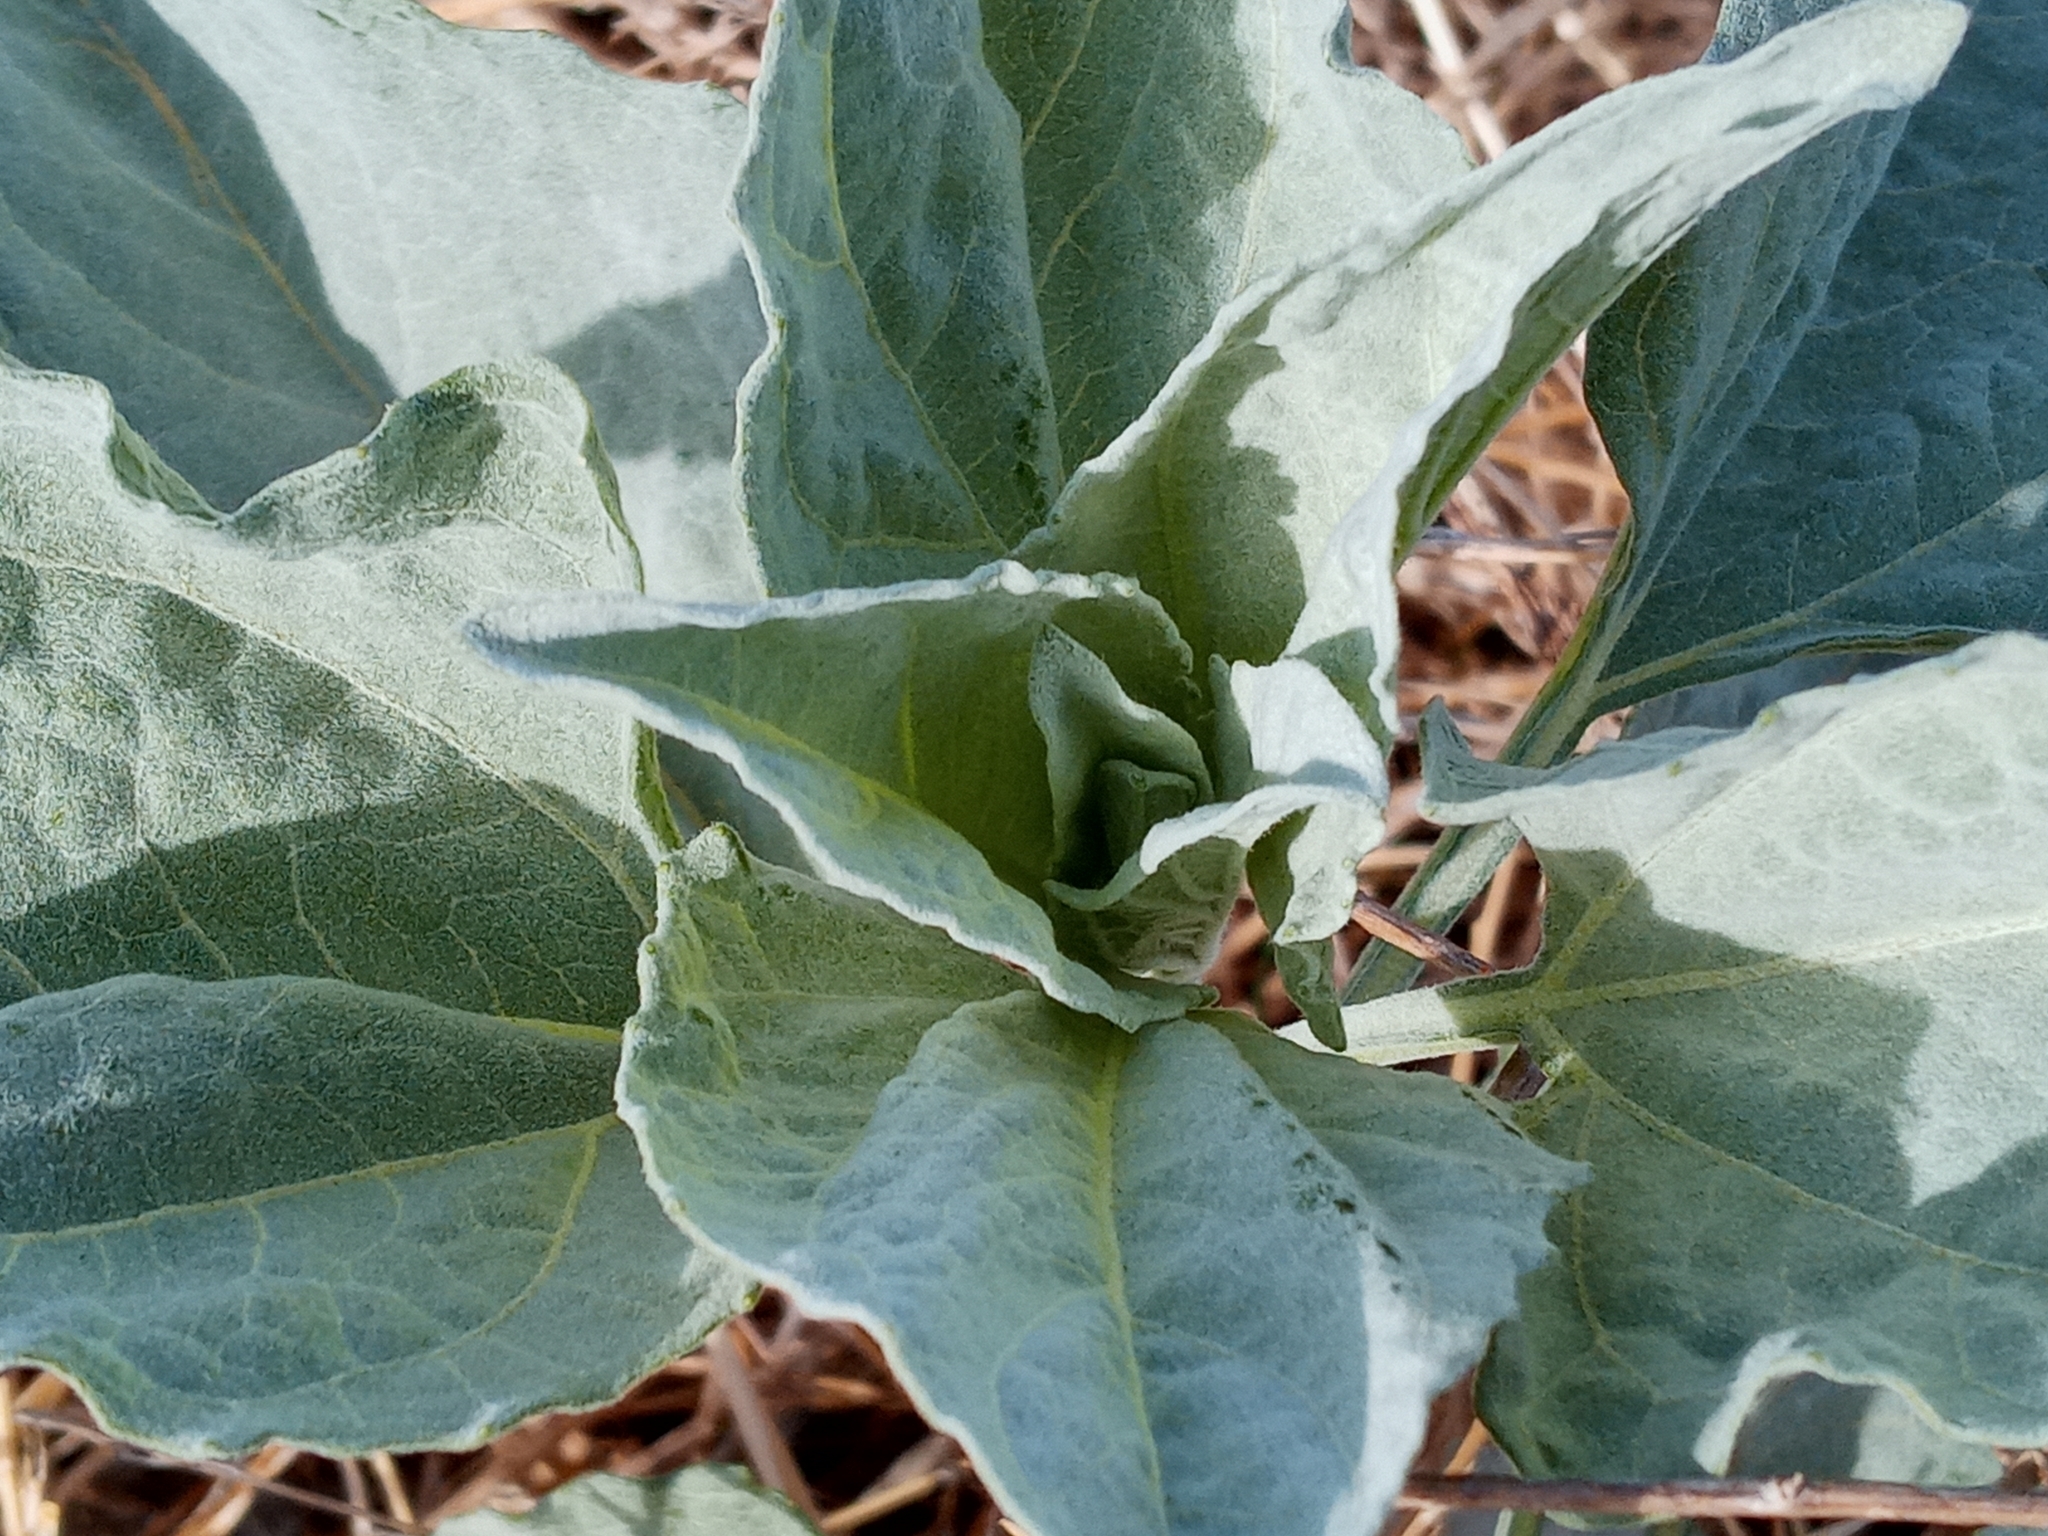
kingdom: Plantae
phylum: Tracheophyta
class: Magnoliopsida
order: Asterales
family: Asteraceae
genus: Encelia
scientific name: Encelia farinosa
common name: Brittlebush
